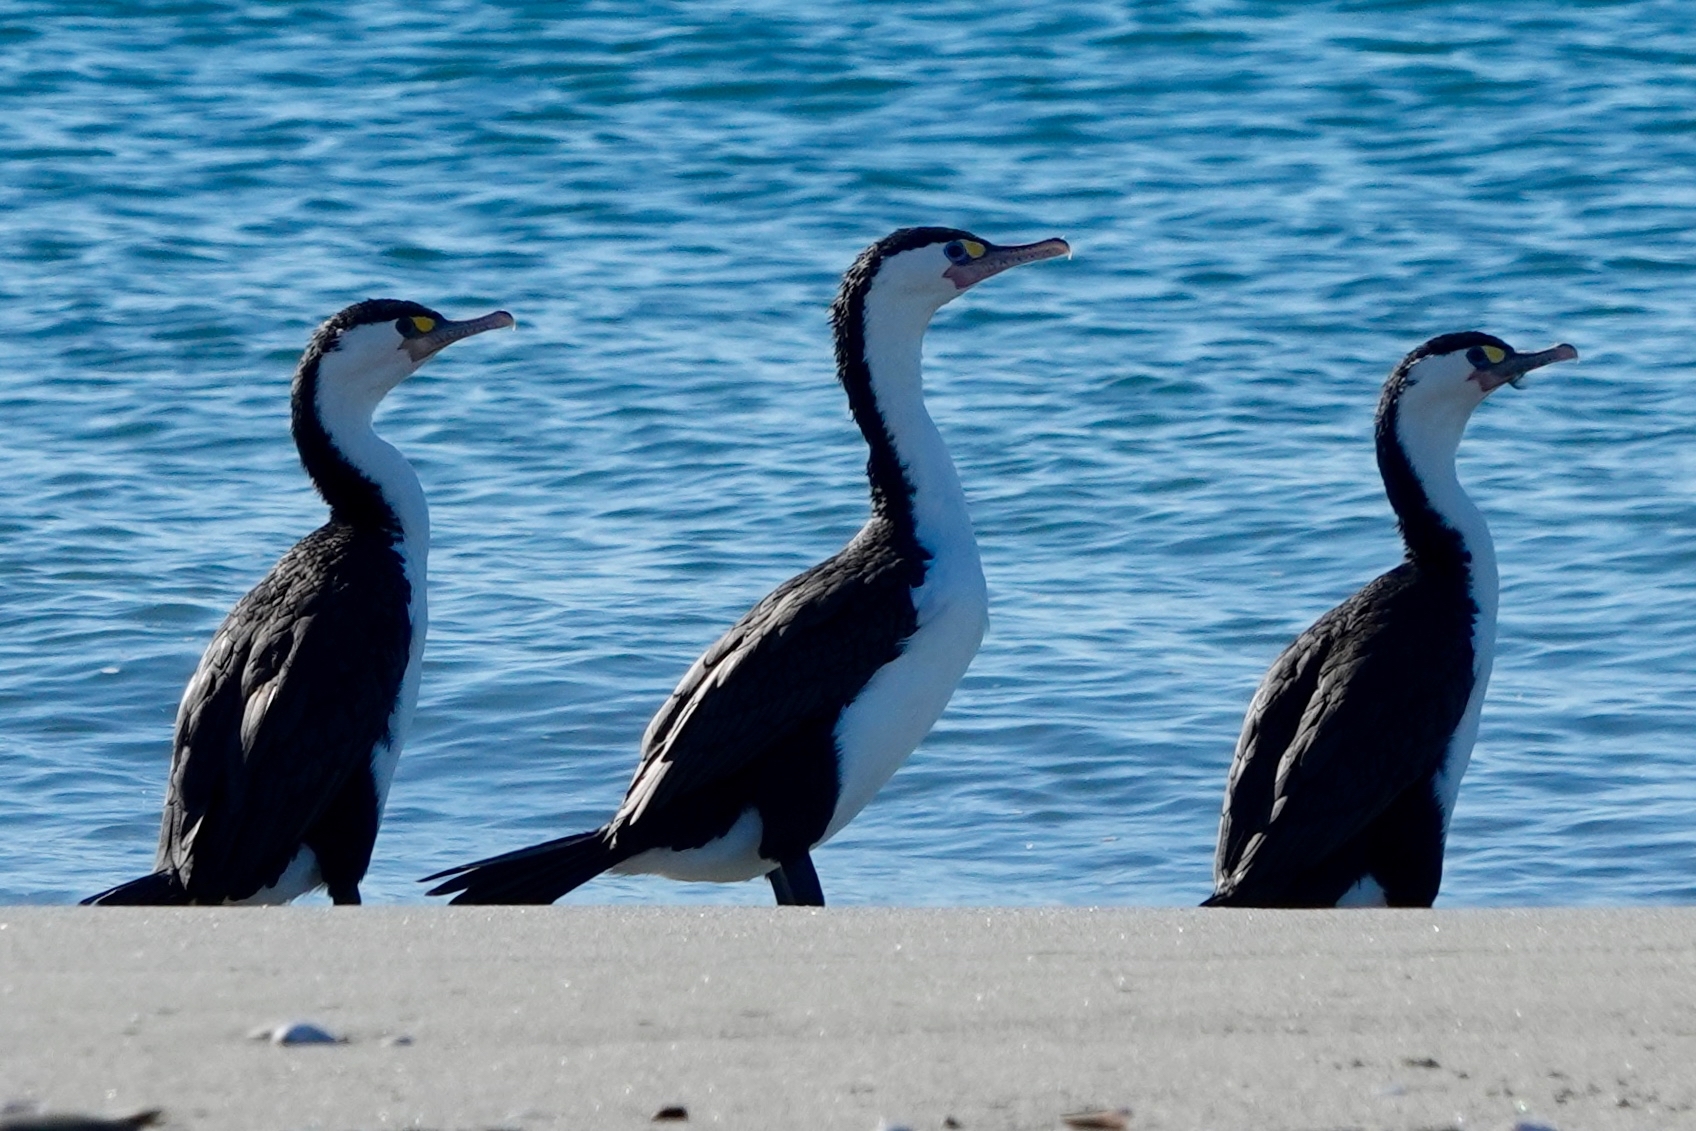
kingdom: Animalia
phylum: Chordata
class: Aves
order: Suliformes
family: Phalacrocoracidae
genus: Phalacrocorax
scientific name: Phalacrocorax varius
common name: Pied cormorant
